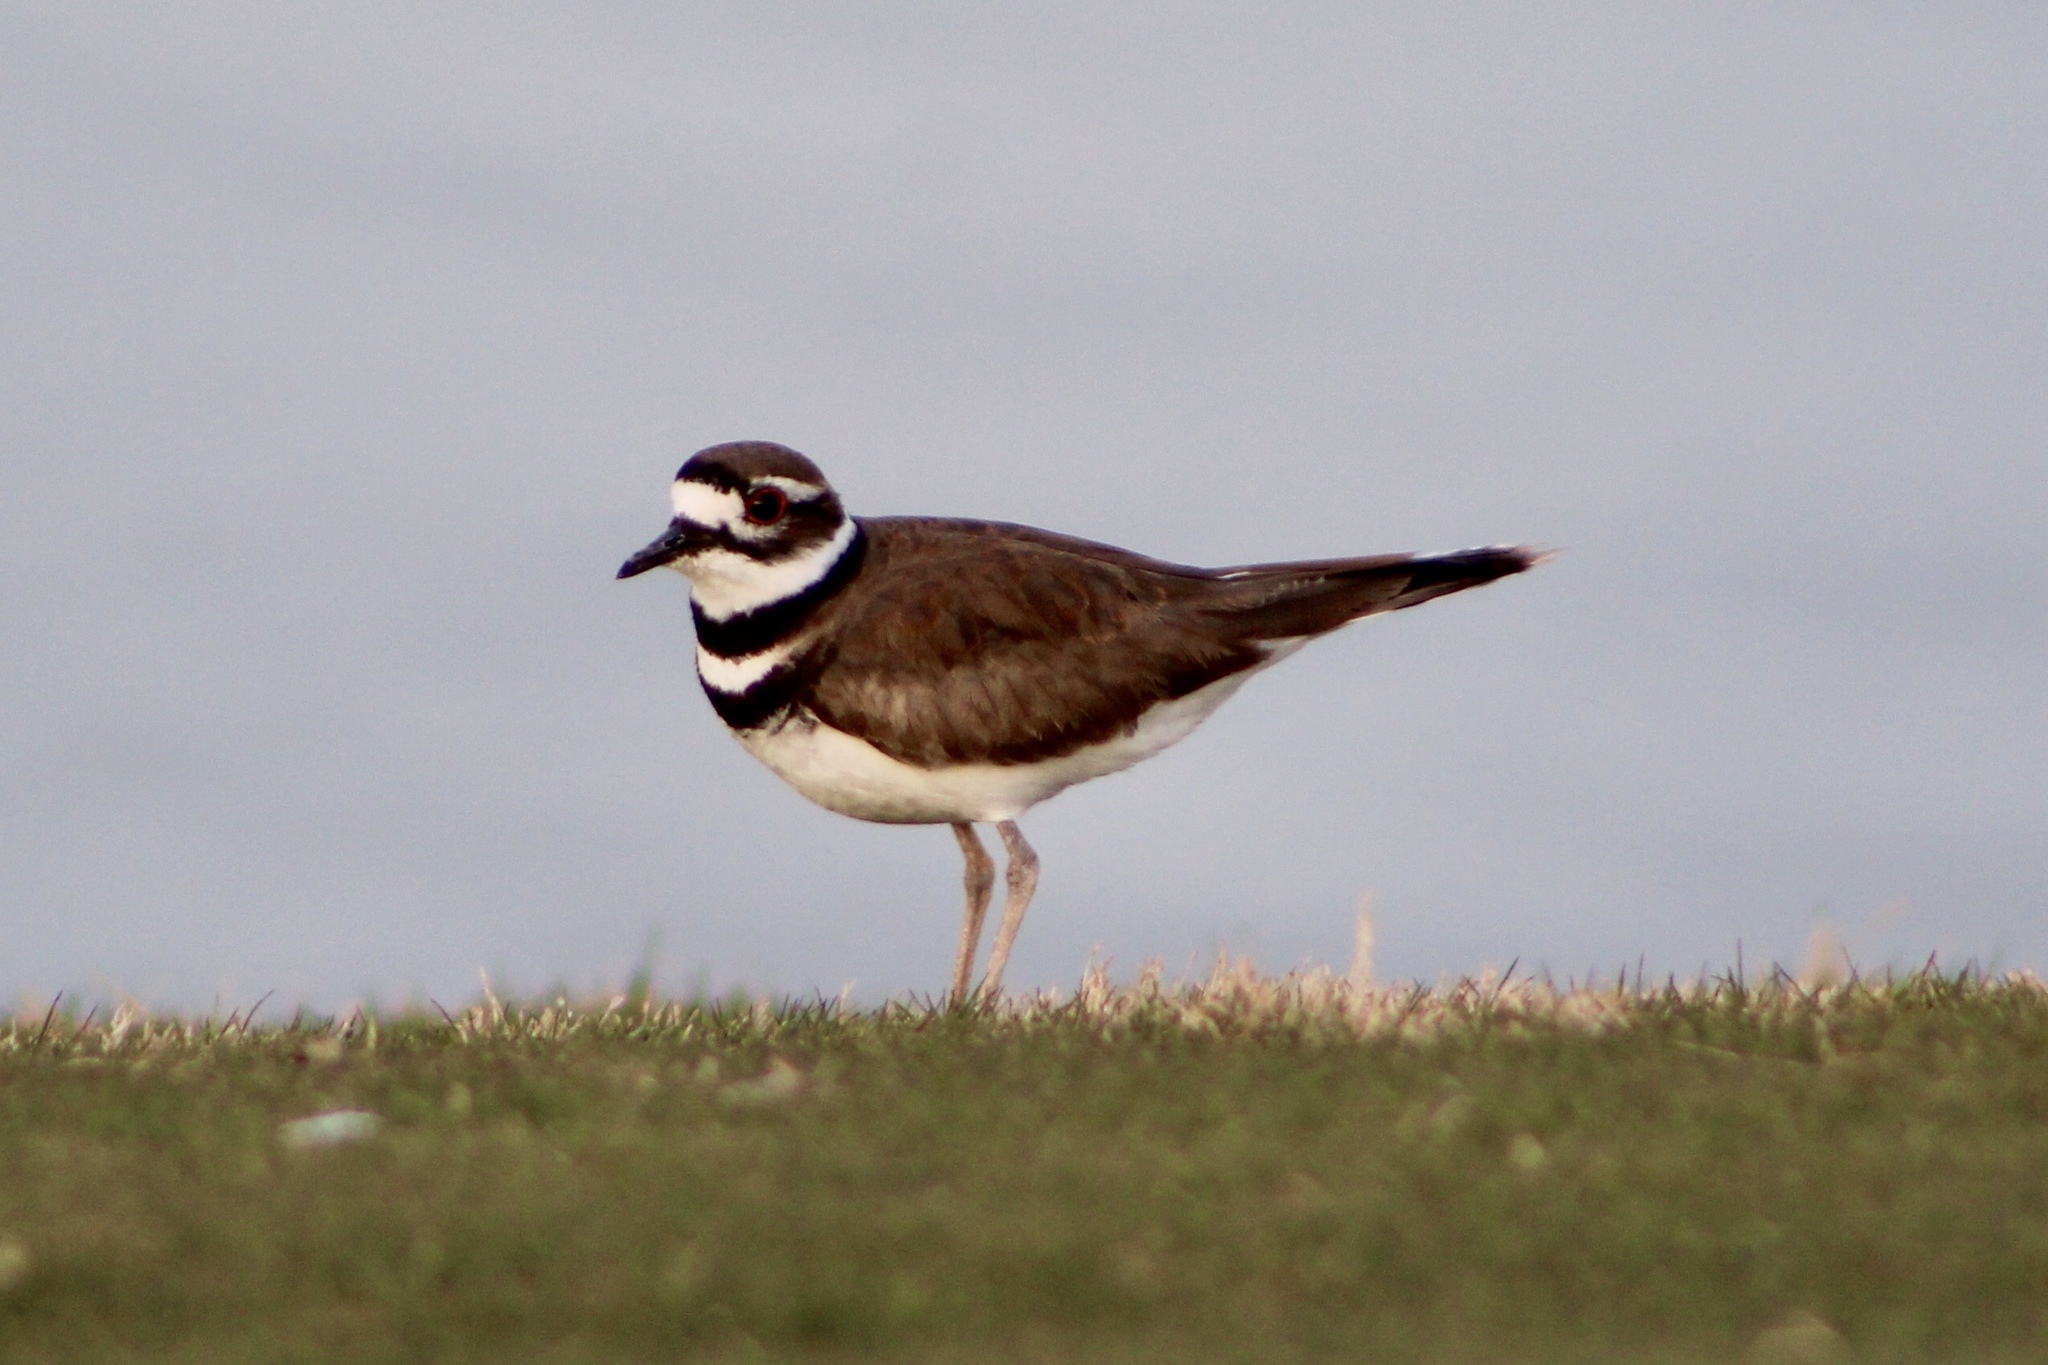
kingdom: Animalia
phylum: Chordata
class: Aves
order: Charadriiformes
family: Charadriidae
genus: Charadrius
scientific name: Charadrius vociferus
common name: Killdeer
